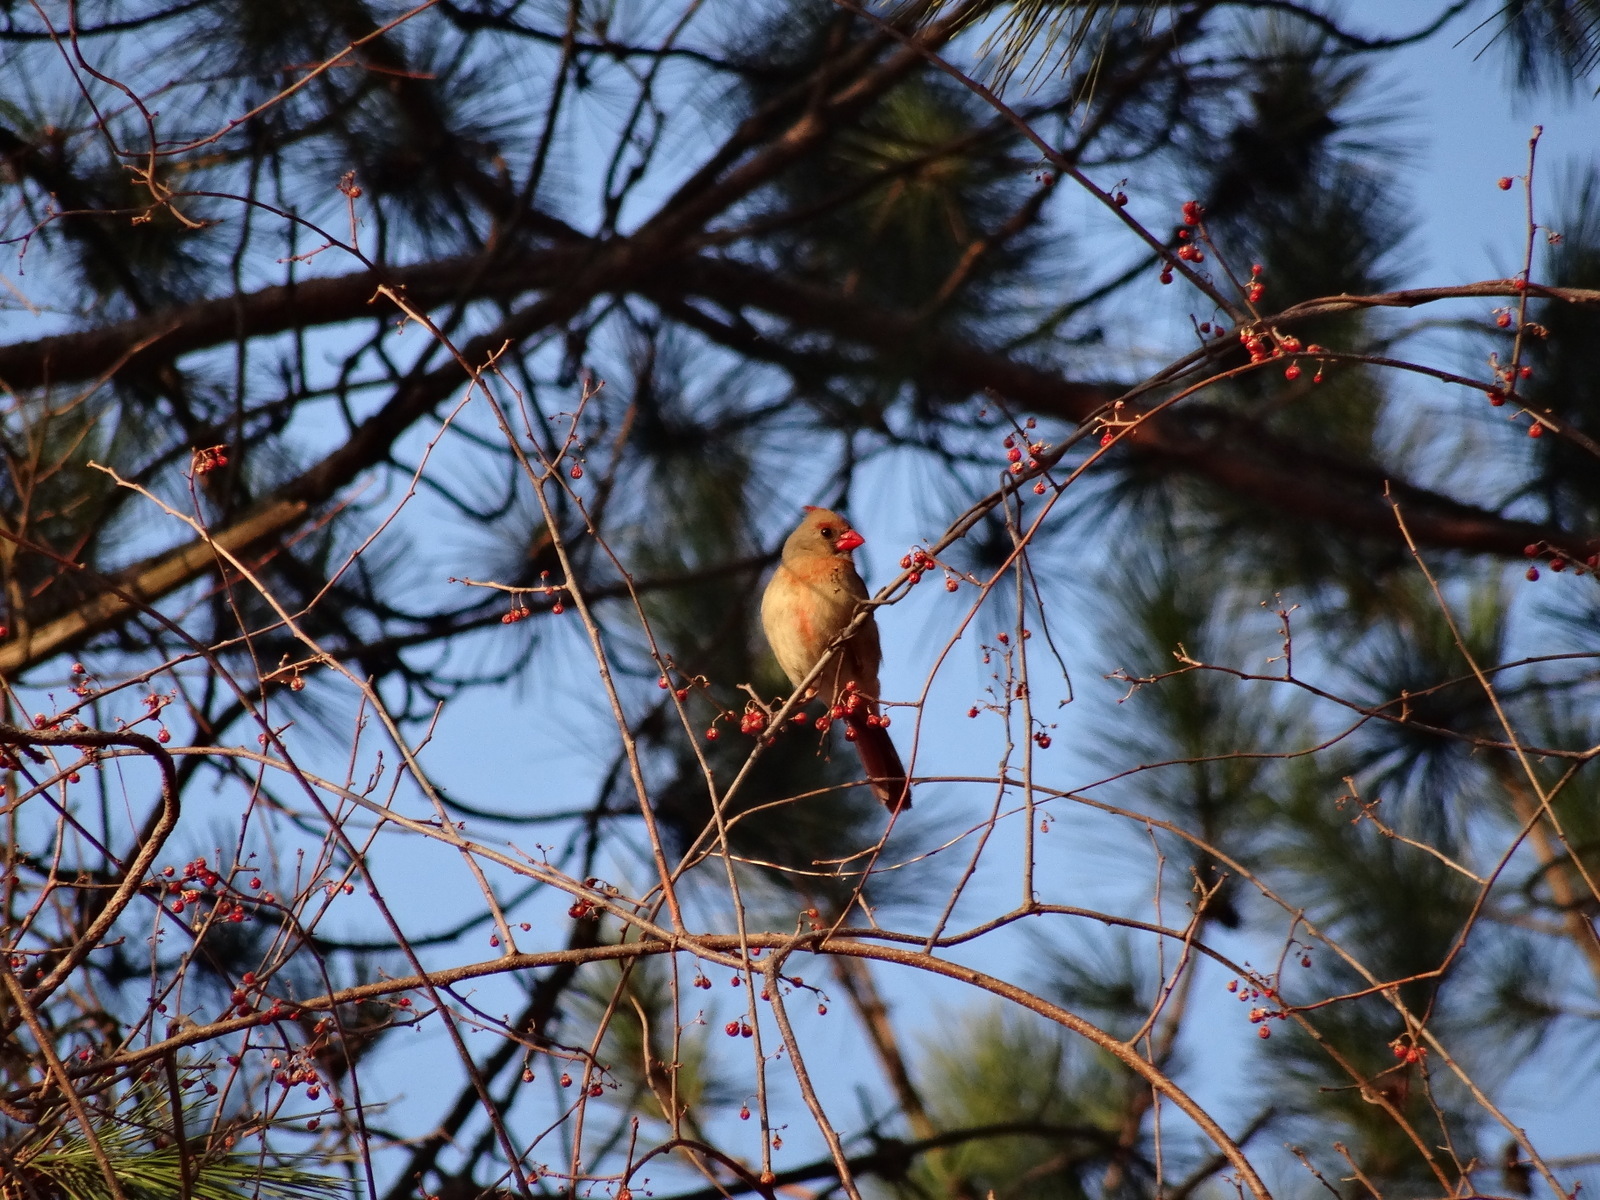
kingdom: Animalia
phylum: Chordata
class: Aves
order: Passeriformes
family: Cardinalidae
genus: Cardinalis
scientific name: Cardinalis cardinalis
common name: Northern cardinal
